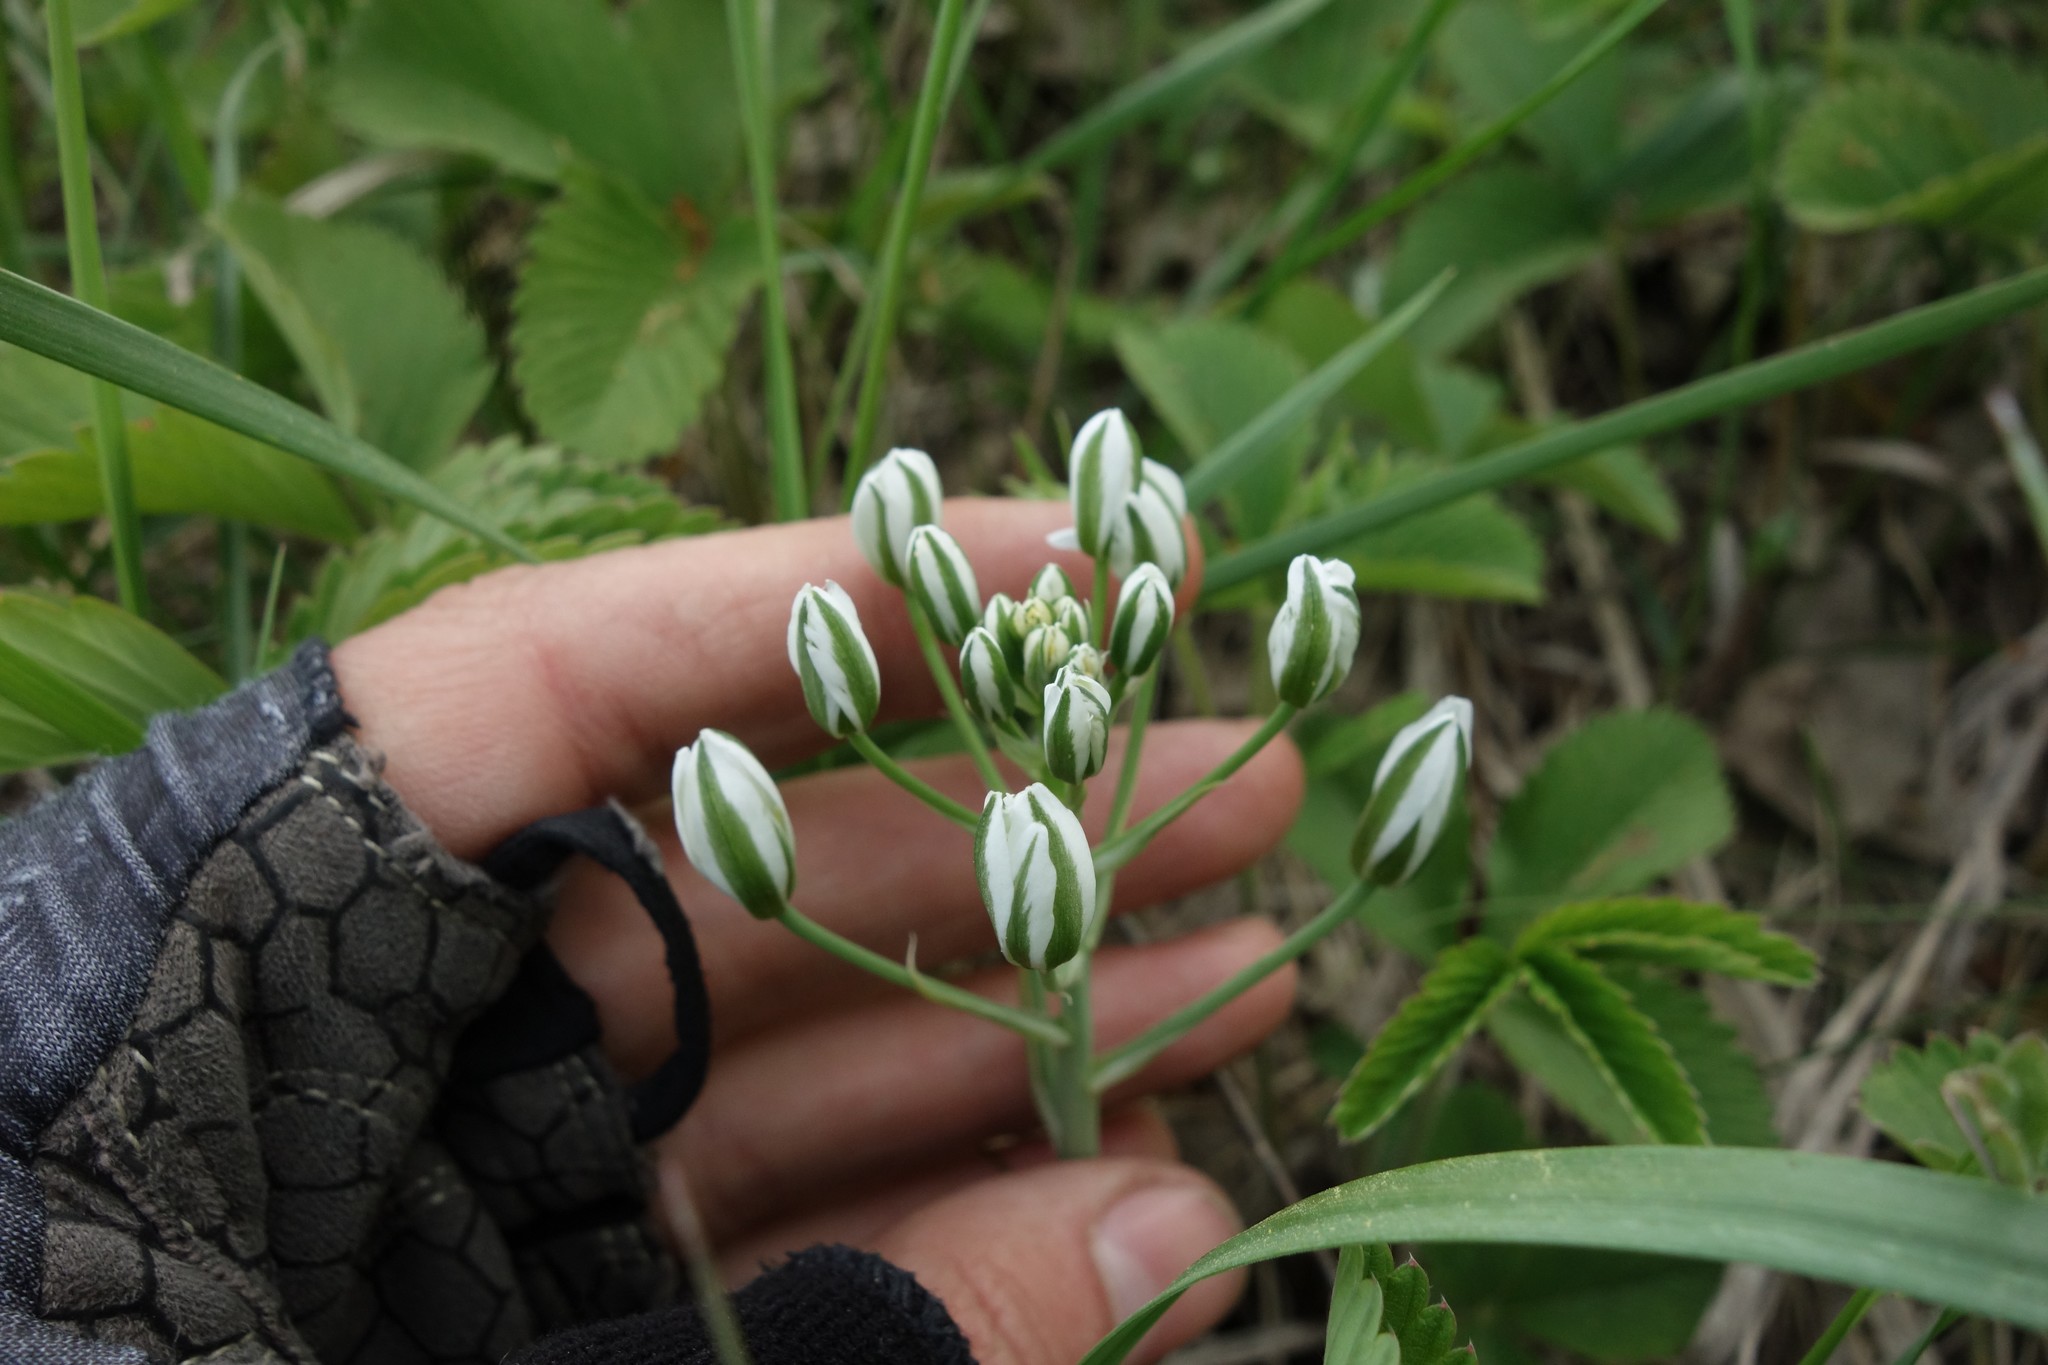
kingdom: Plantae
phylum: Tracheophyta
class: Liliopsida
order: Asparagales
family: Asparagaceae
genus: Ornithogalum
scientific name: Ornithogalum orthophyllum
